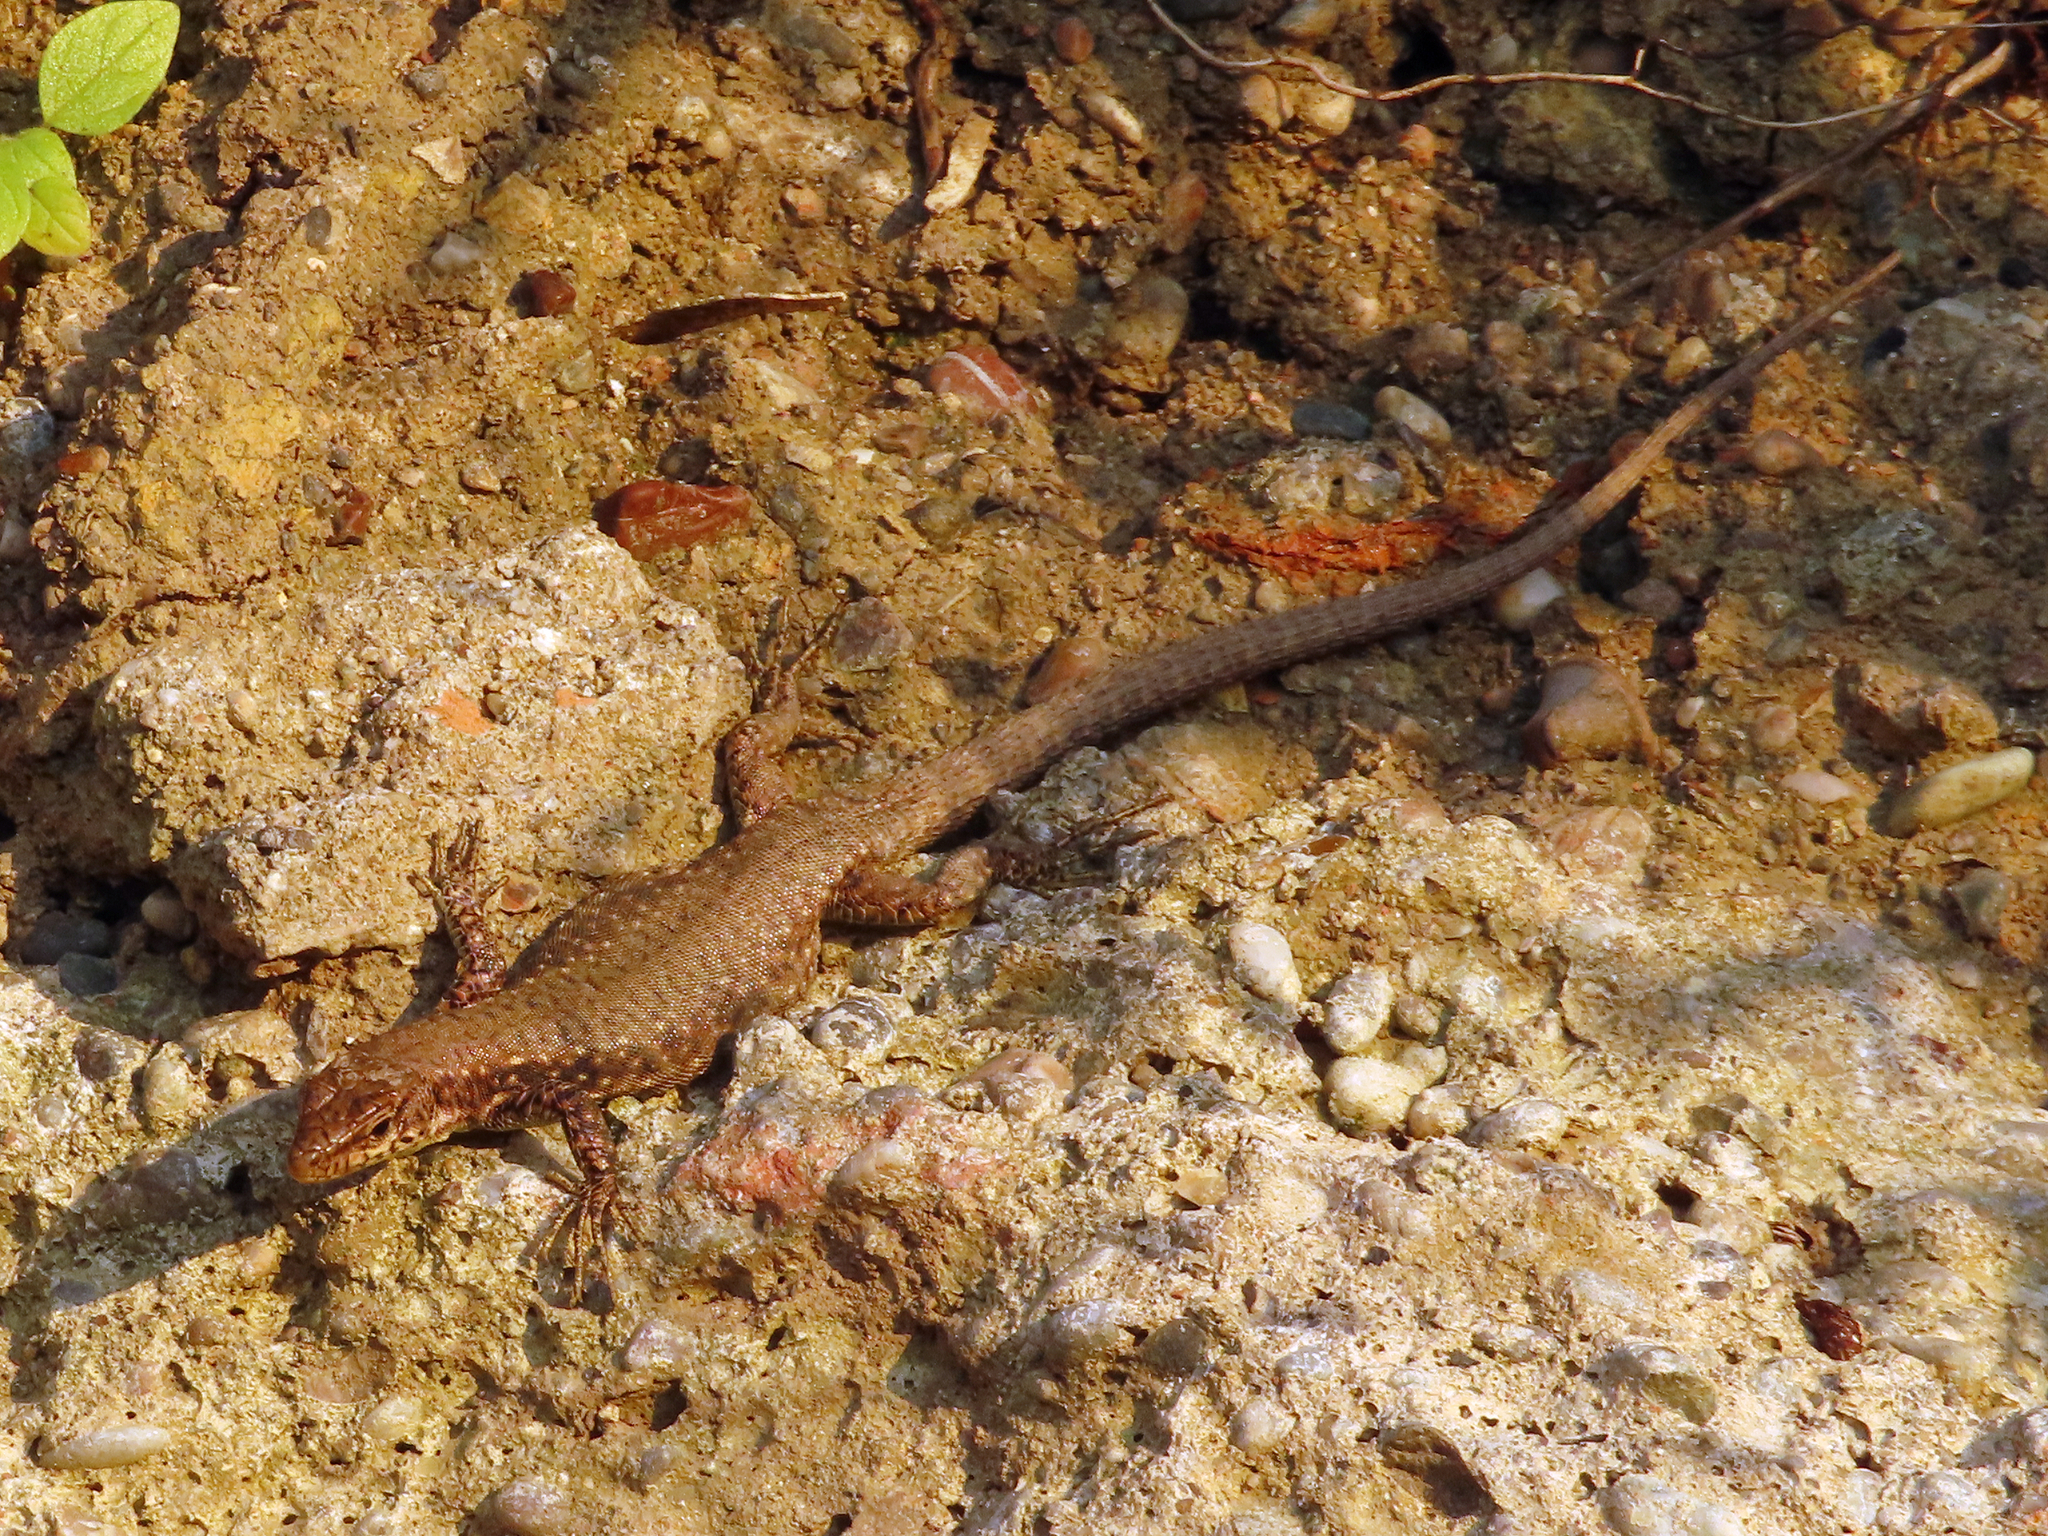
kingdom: Animalia
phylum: Chordata
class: Squamata
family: Lacertidae
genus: Darevskia
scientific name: Darevskia bithynica
